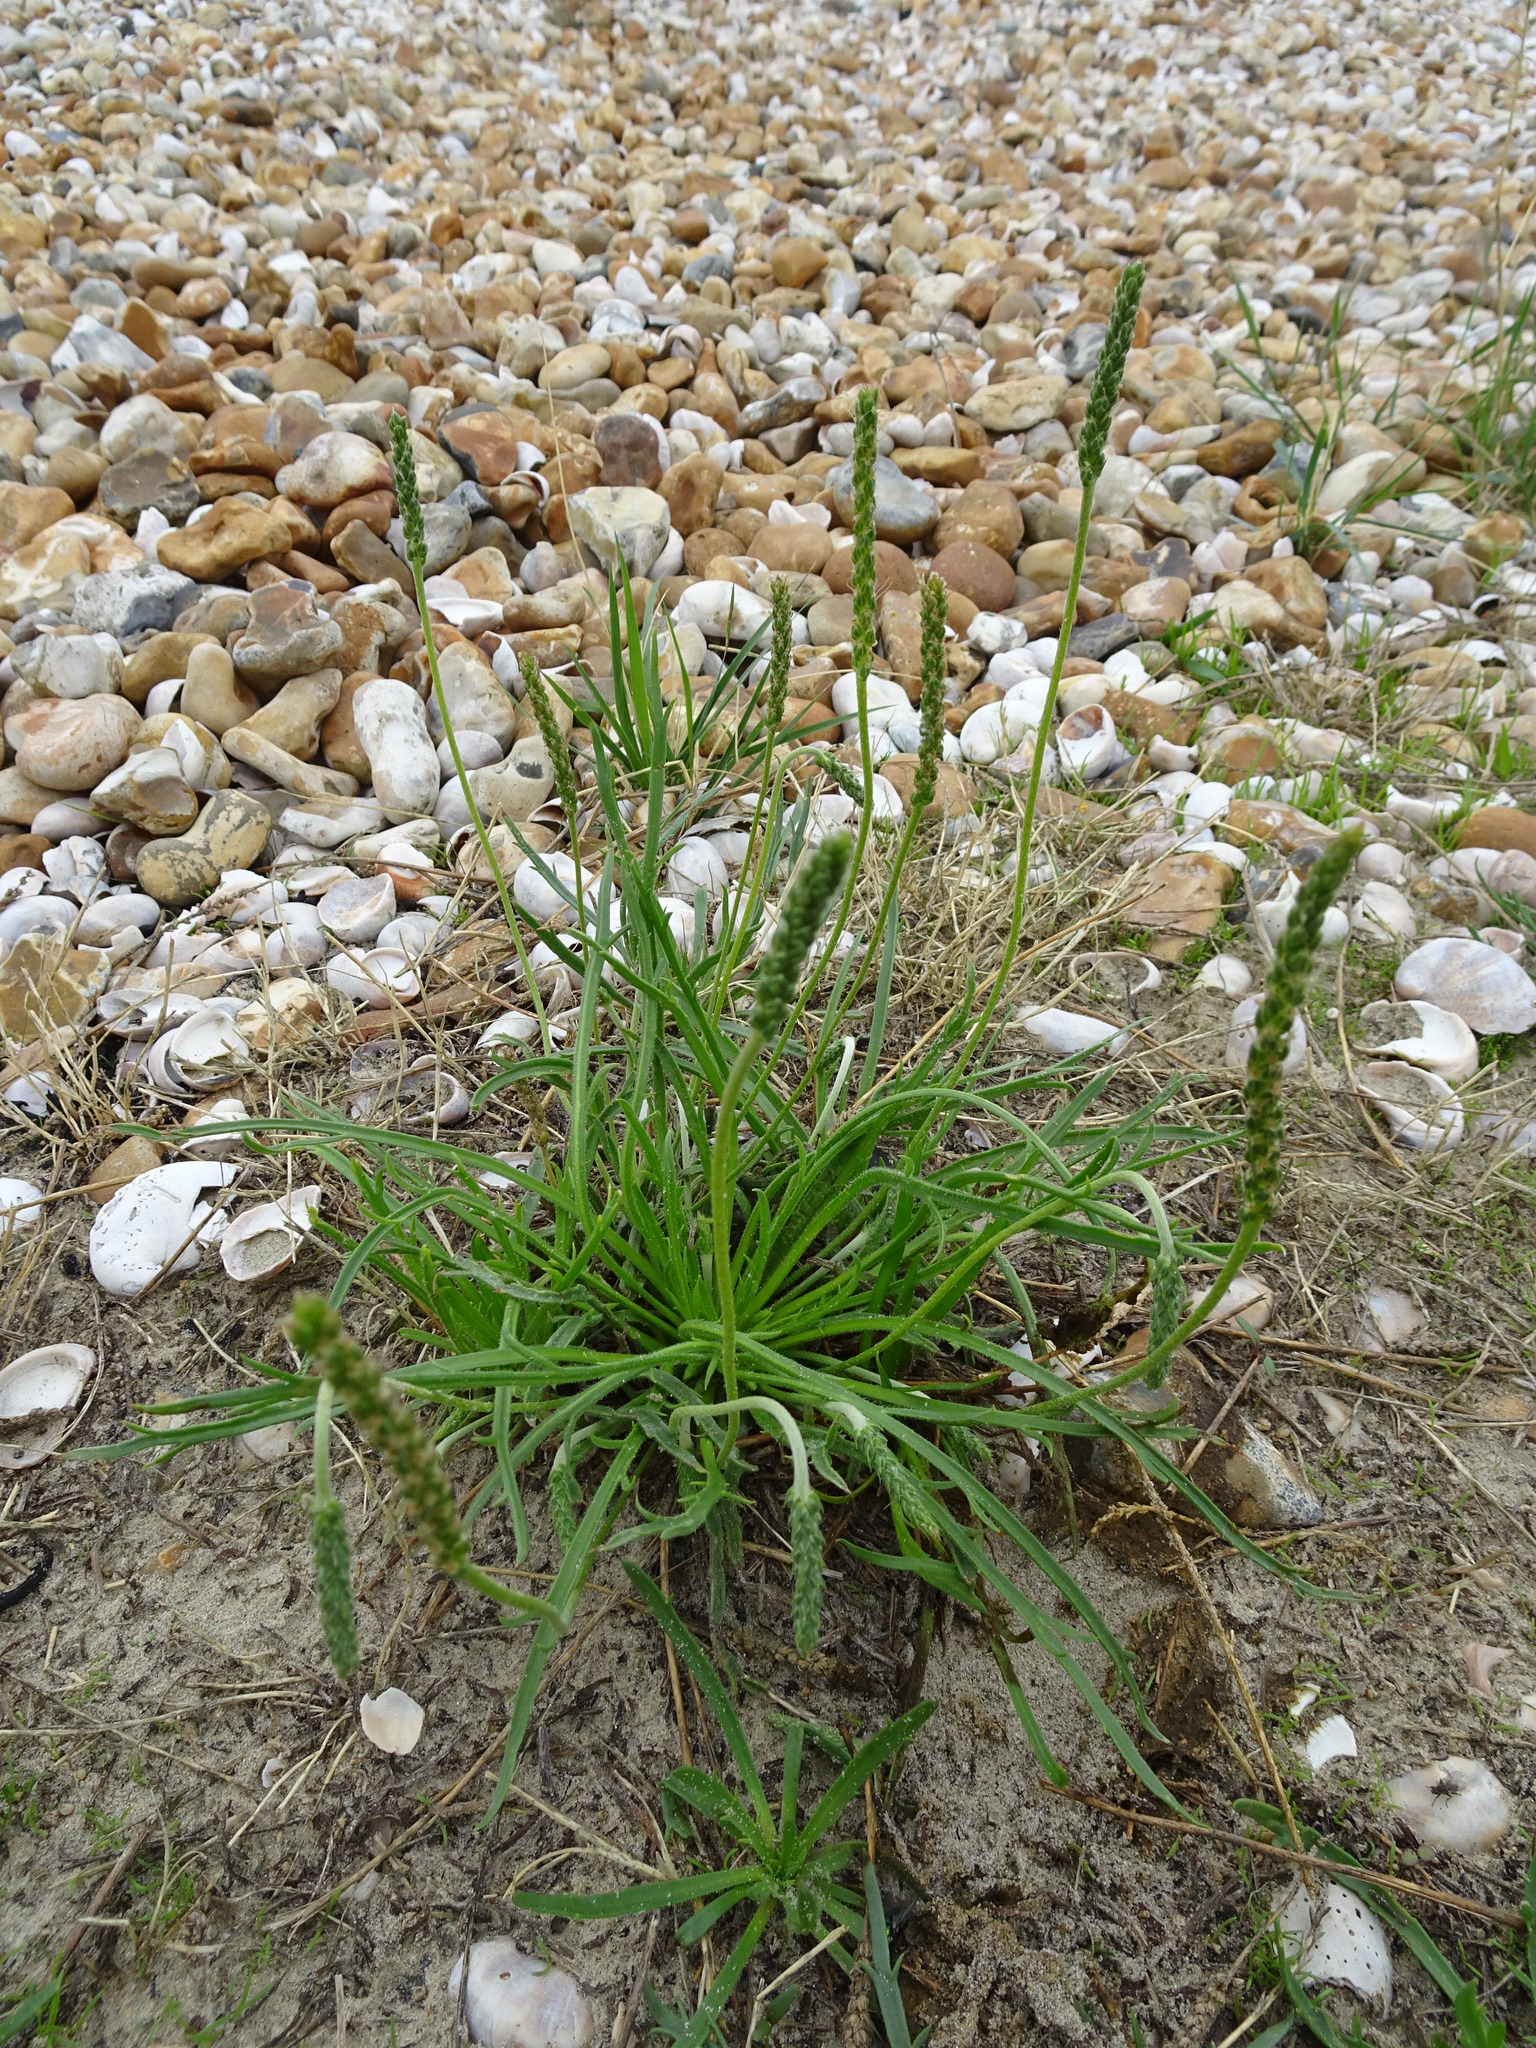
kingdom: Plantae
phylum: Tracheophyta
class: Magnoliopsida
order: Lamiales
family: Plantaginaceae
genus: Plantago
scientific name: Plantago coronopus
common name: Buck's-horn plantain
